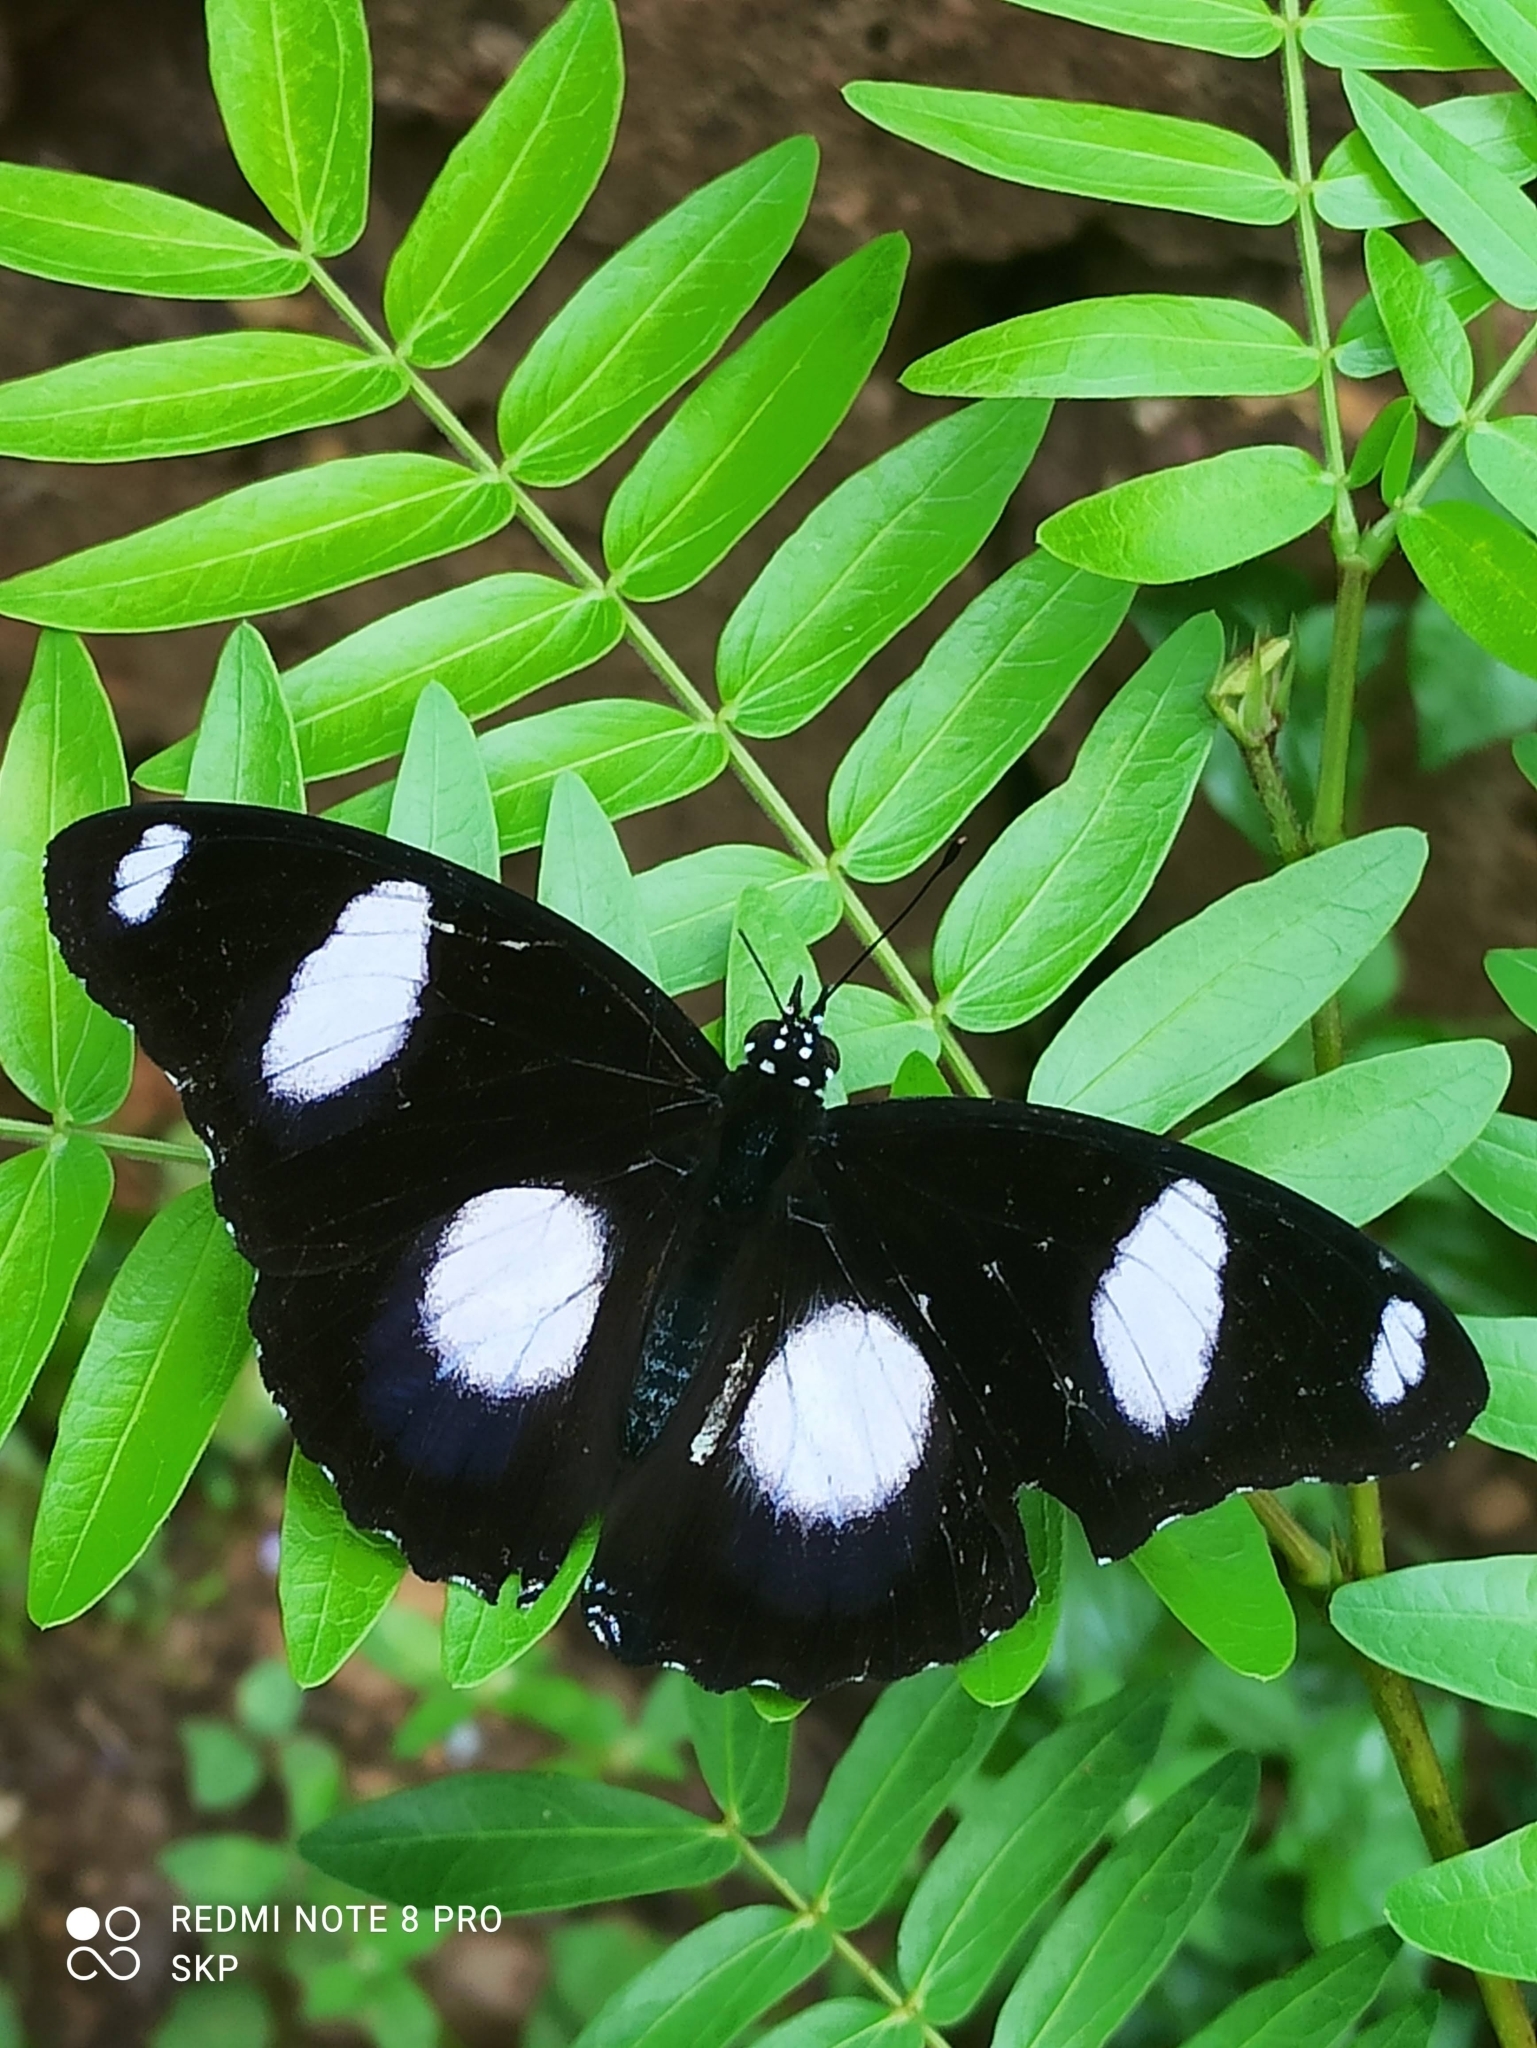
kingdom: Animalia
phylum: Arthropoda
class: Insecta
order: Lepidoptera
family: Nymphalidae
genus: Hypolimnas
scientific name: Hypolimnas misippus
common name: False plain tiger
